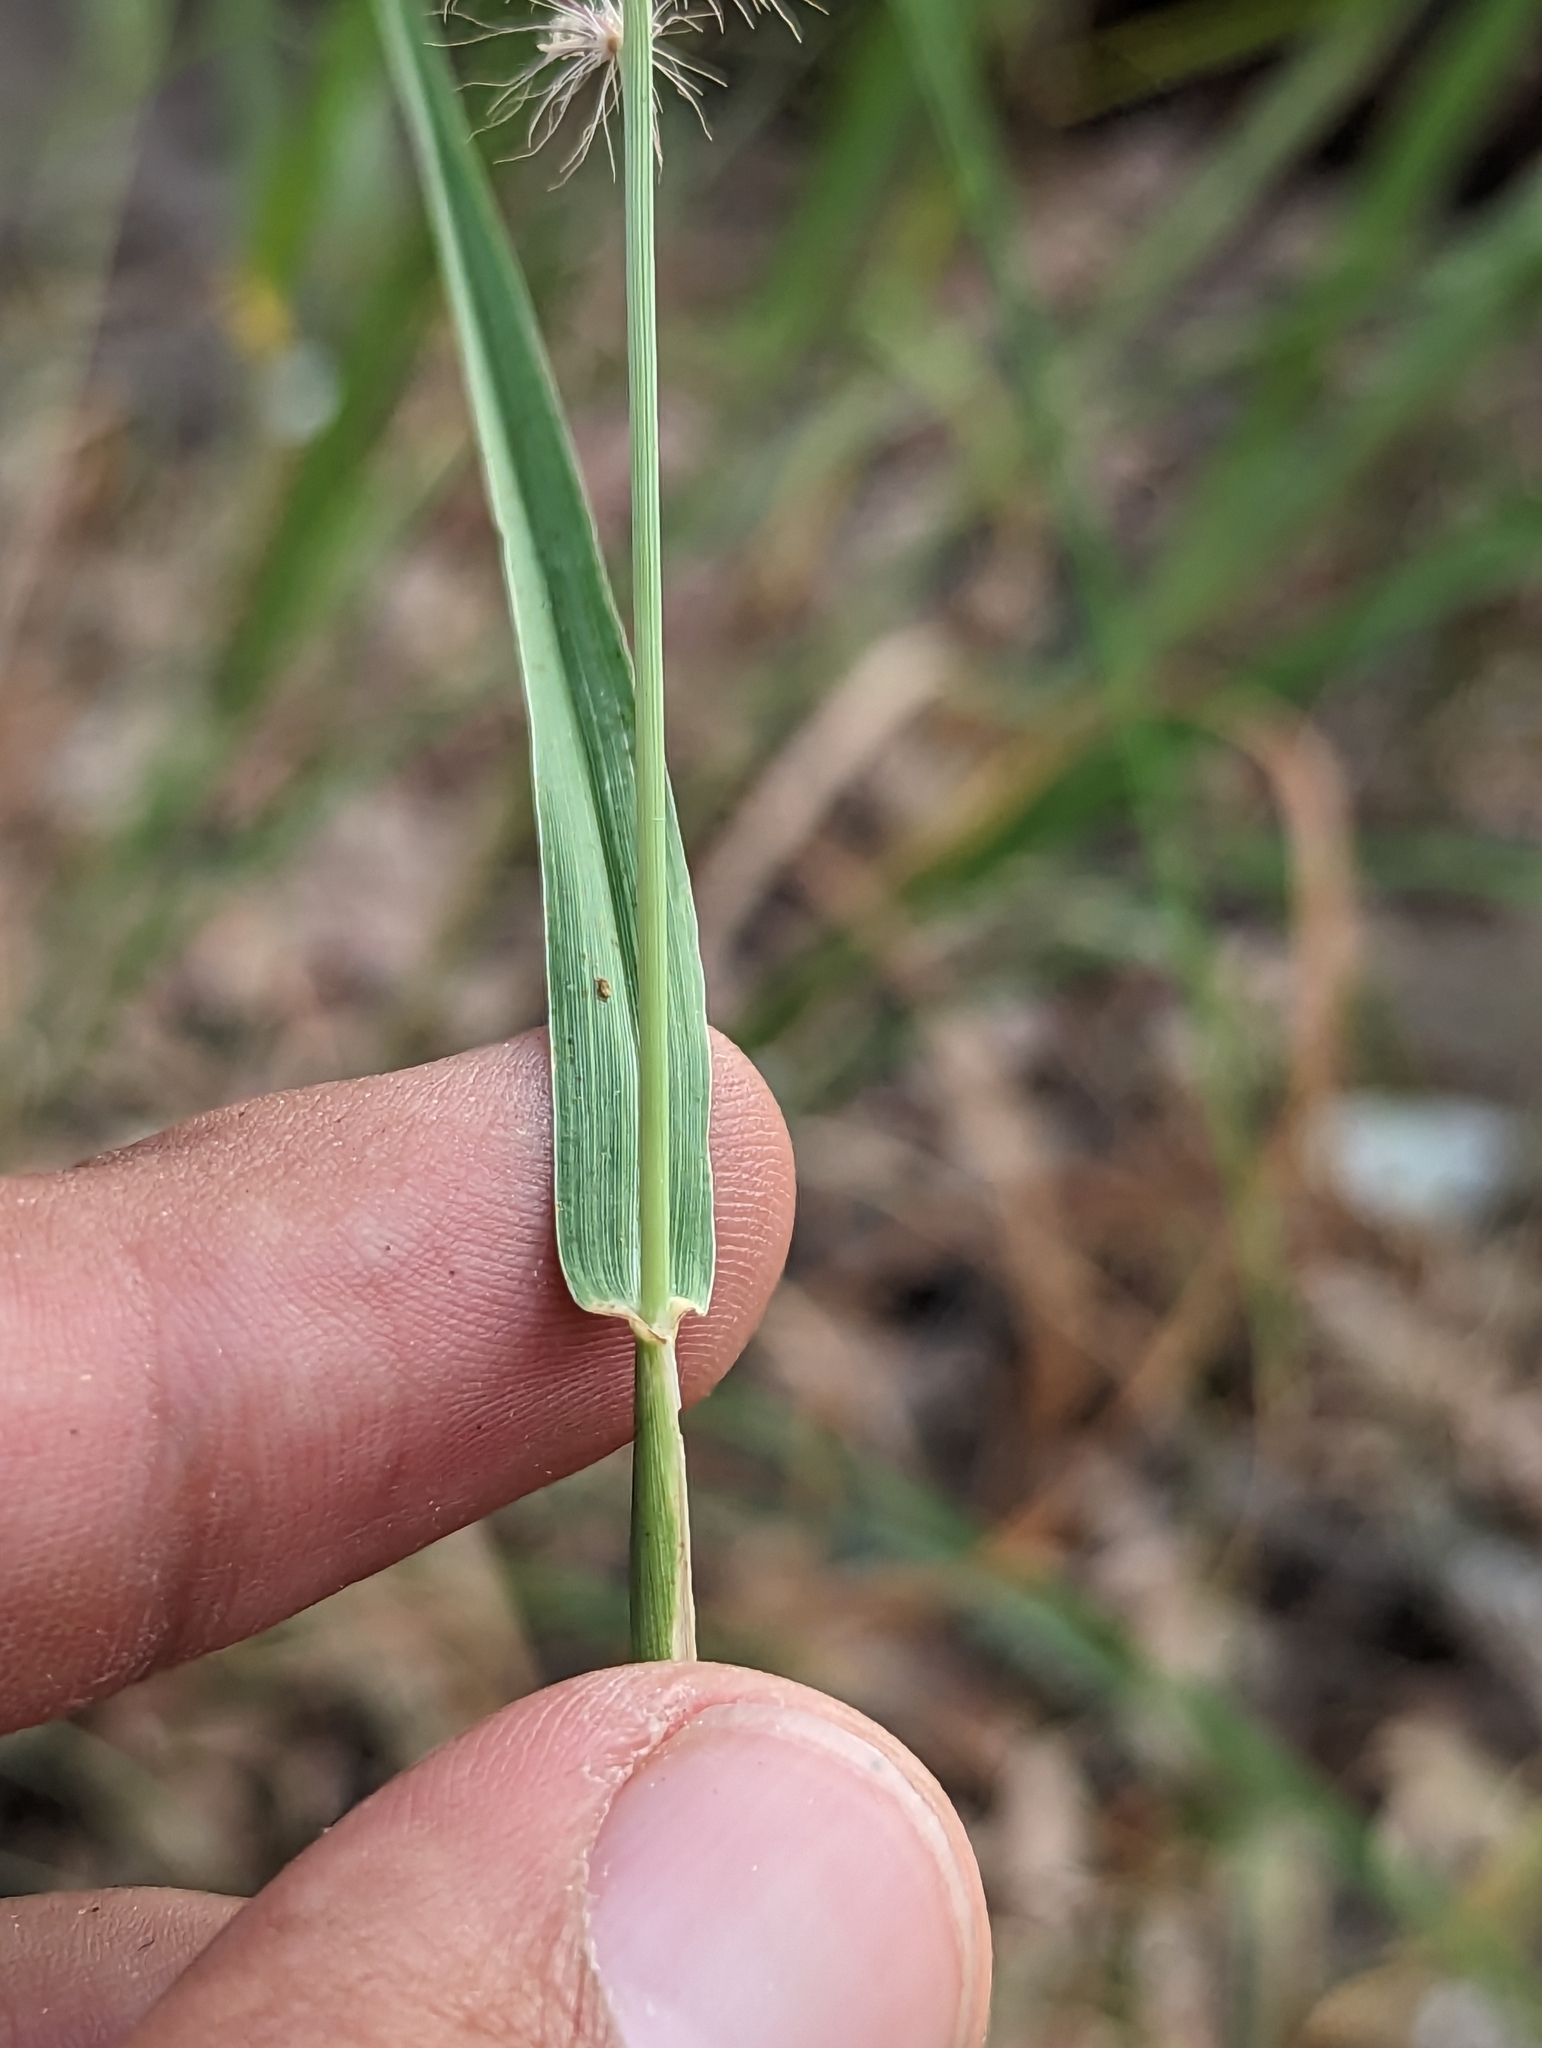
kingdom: Plantae
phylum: Tracheophyta
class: Liliopsida
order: Poales
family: Poaceae
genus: Cenchrus
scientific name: Cenchrus ciliaris
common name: Buffelgrass
